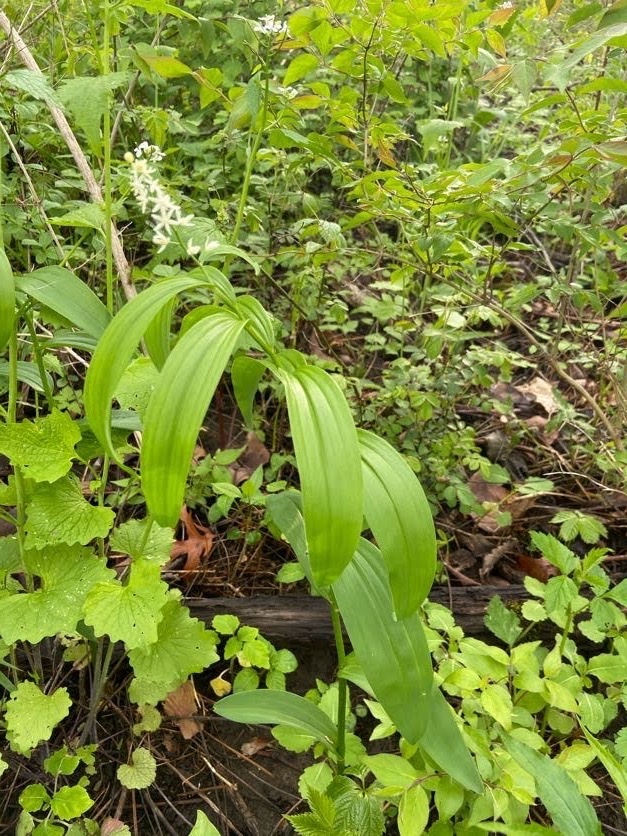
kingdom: Plantae
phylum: Tracheophyta
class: Liliopsida
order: Asparagales
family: Asparagaceae
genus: Maianthemum
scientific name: Maianthemum stellatum
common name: Little false solomon's seal
